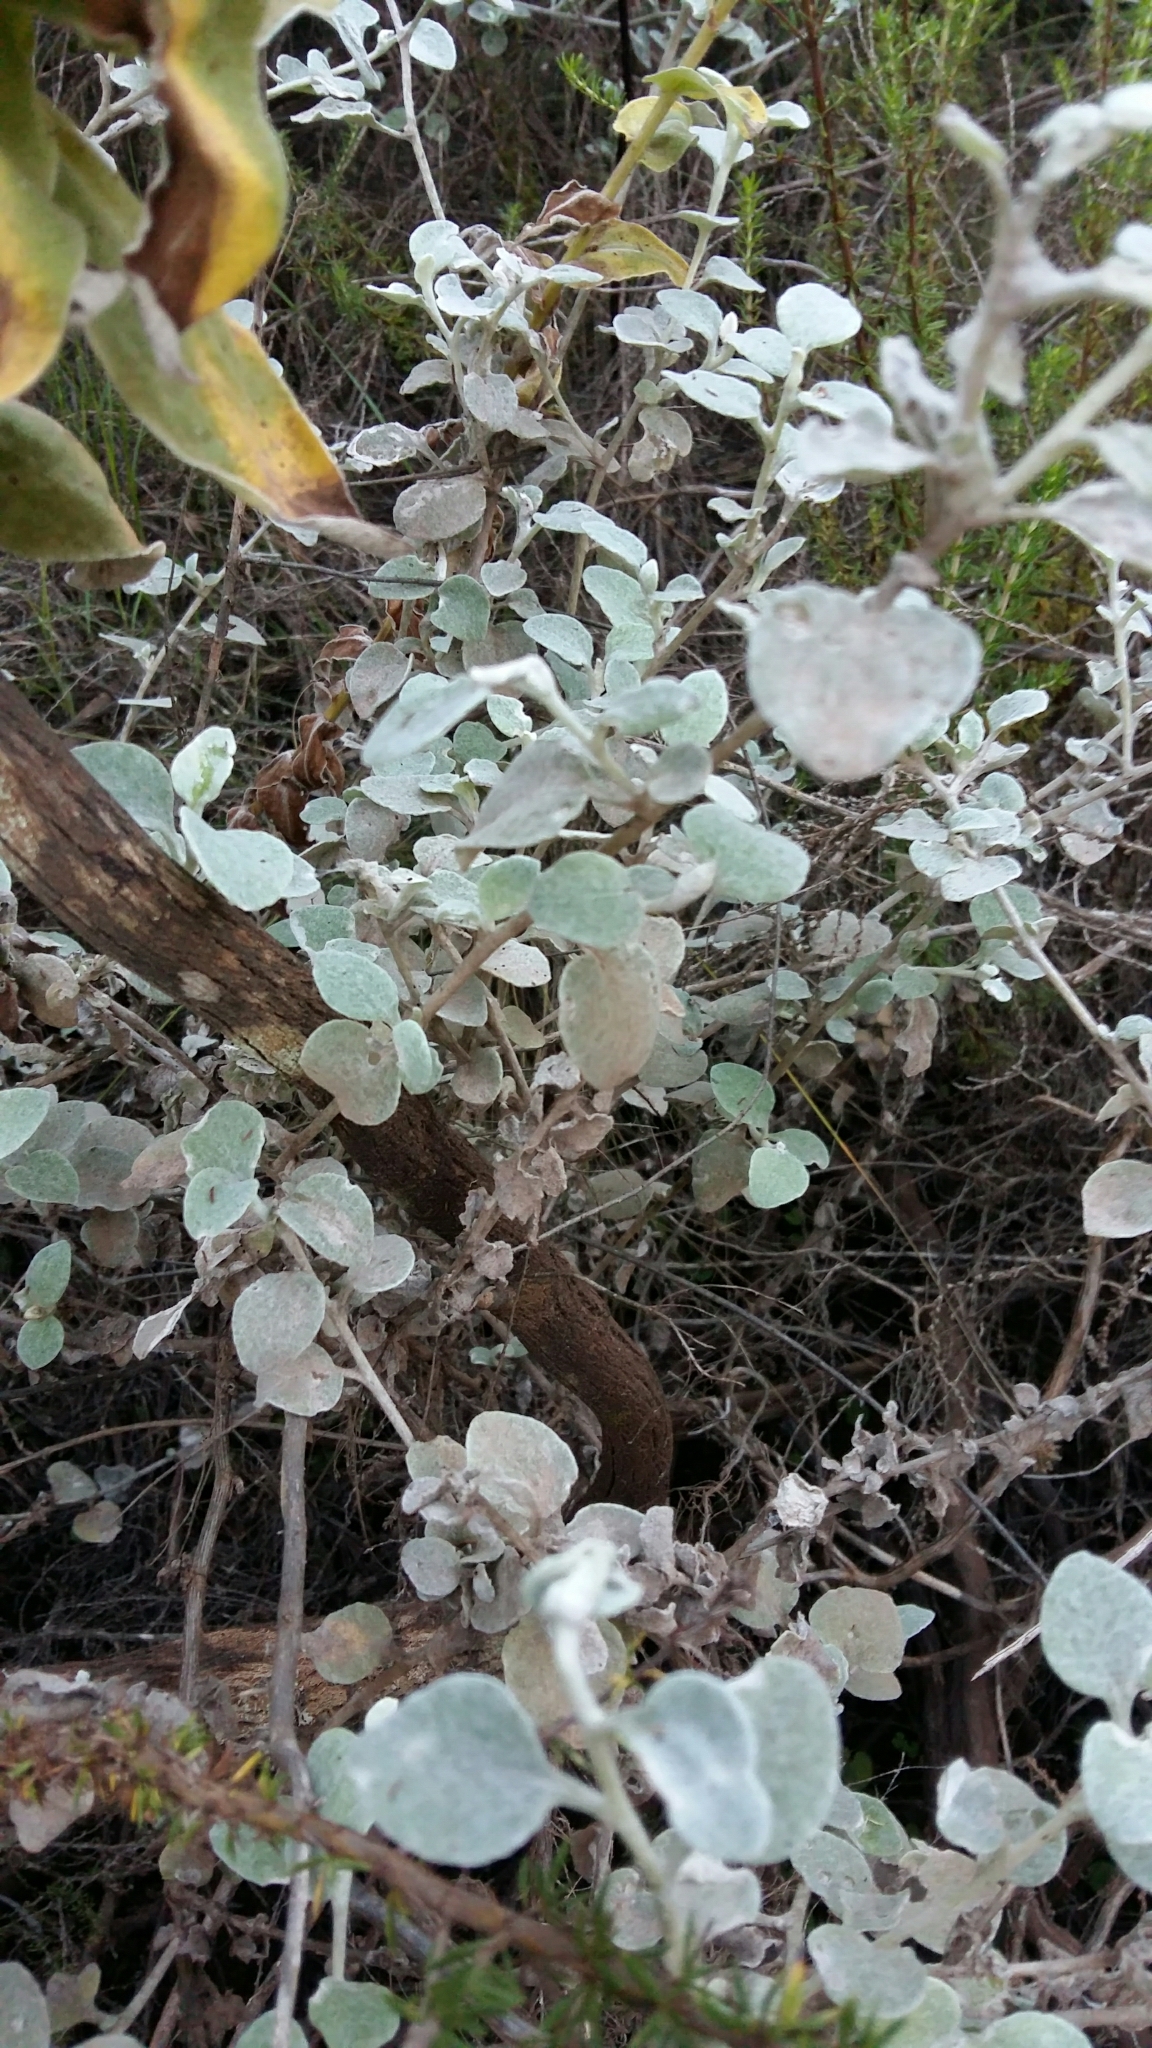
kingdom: Plantae
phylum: Tracheophyta
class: Magnoliopsida
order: Asterales
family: Asteraceae
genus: Helichrysum
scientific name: Helichrysum petiolare
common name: Licorice-plant
